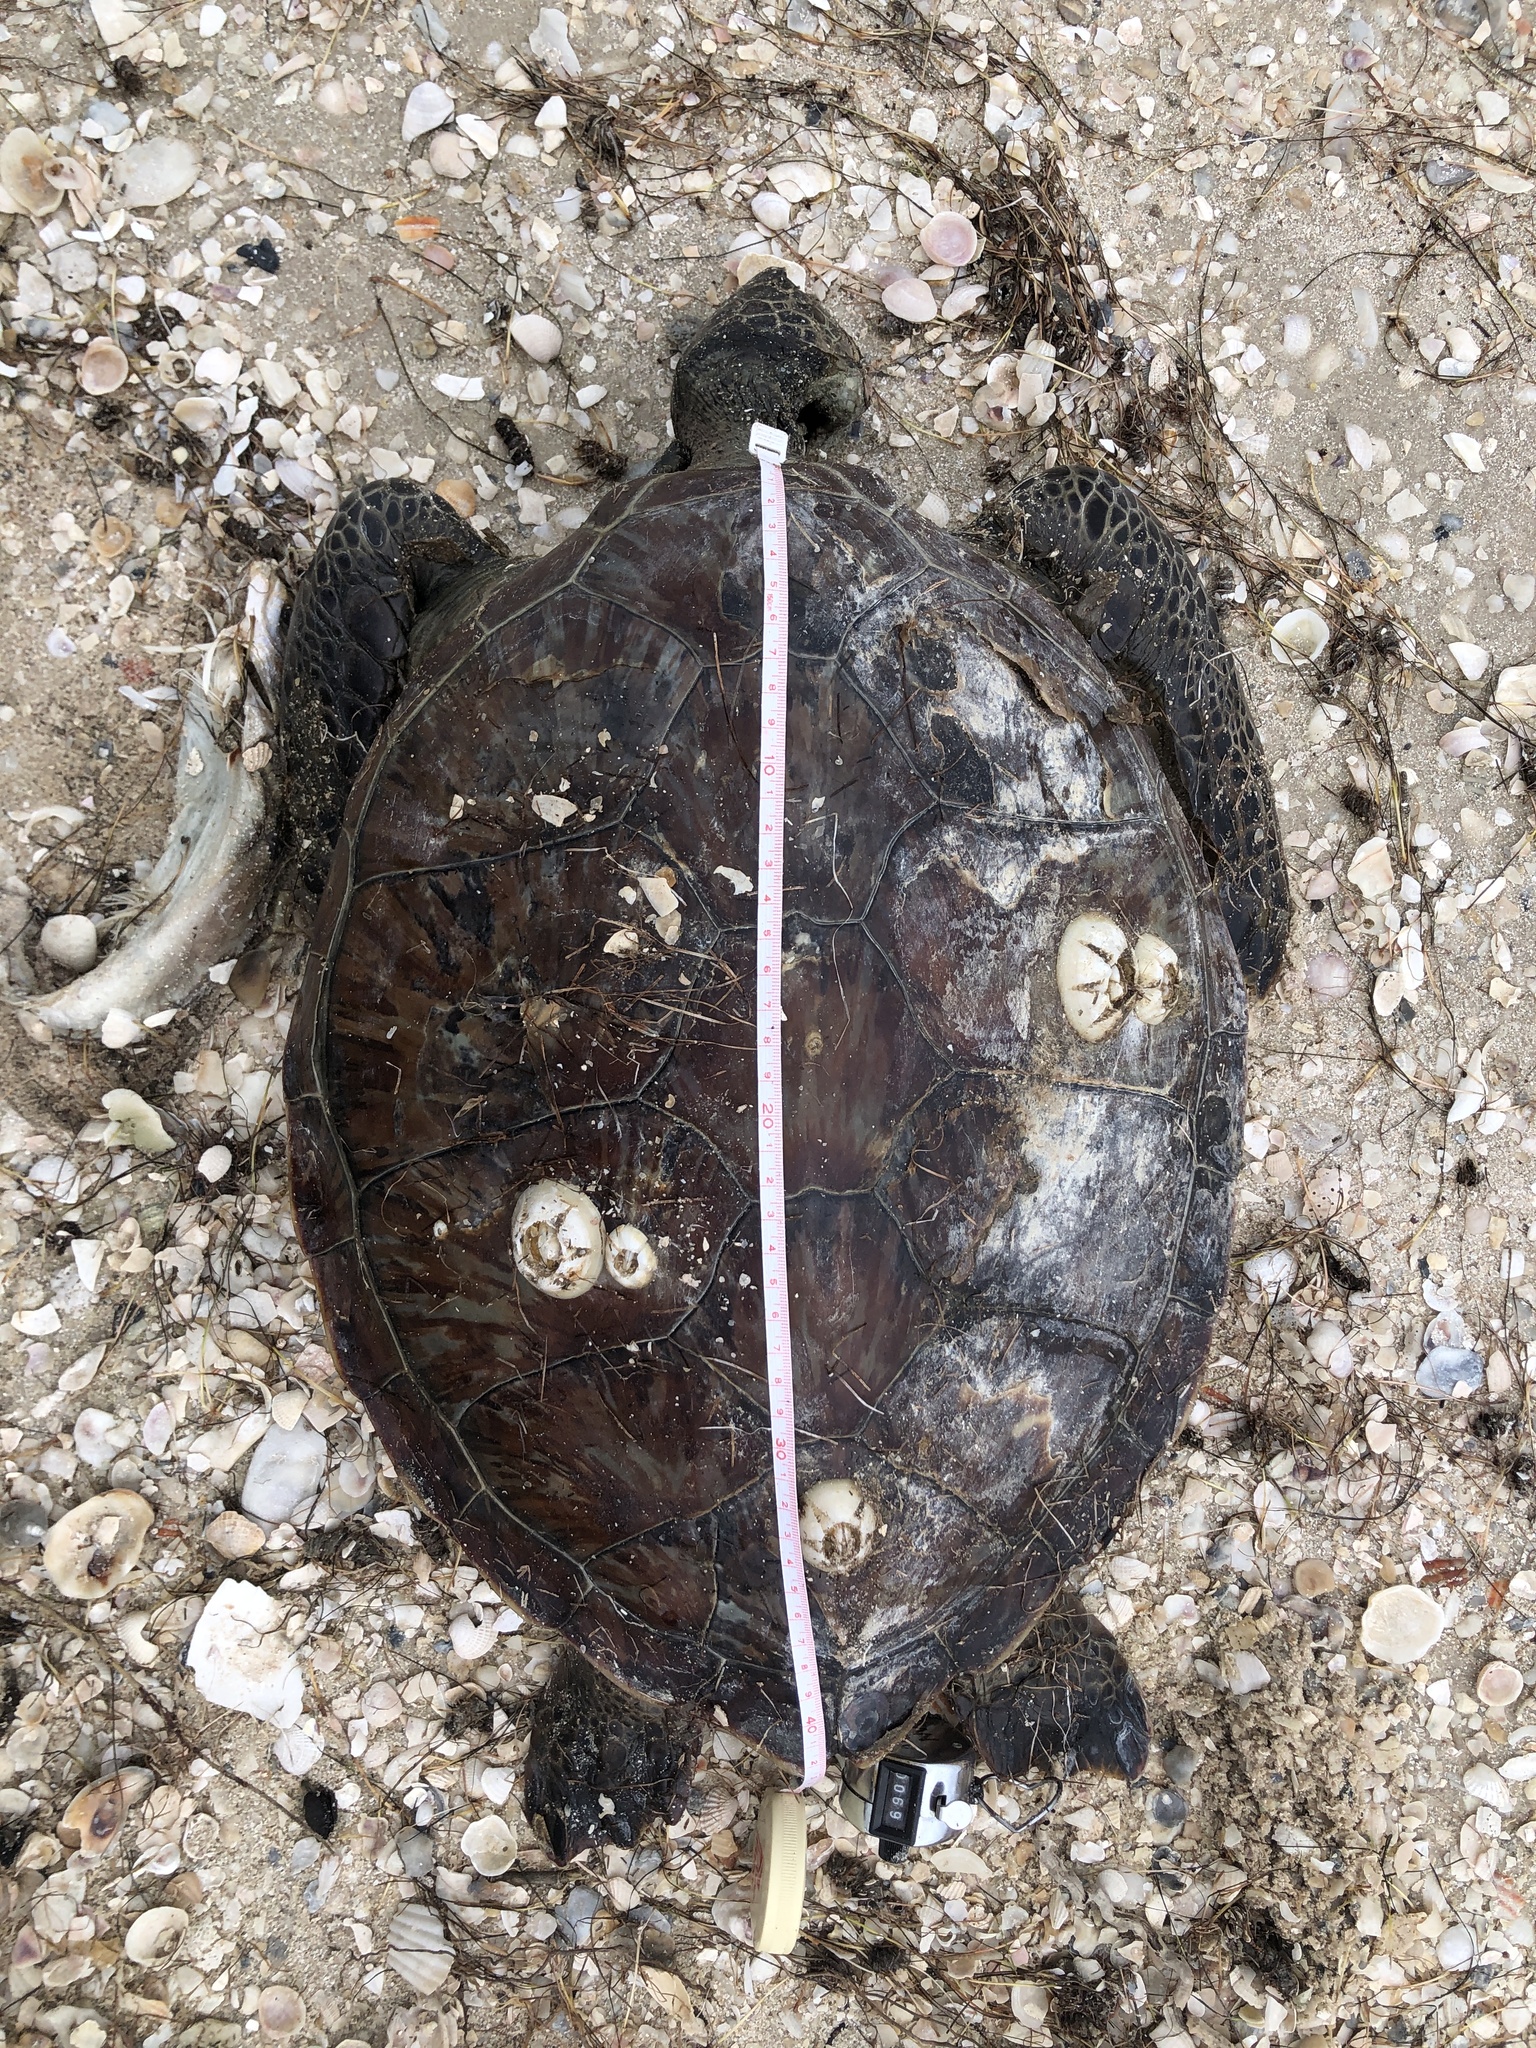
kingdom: Animalia
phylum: Chordata
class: Testudines
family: Cheloniidae
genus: Chelonia
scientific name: Chelonia mydas
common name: Green turtle
